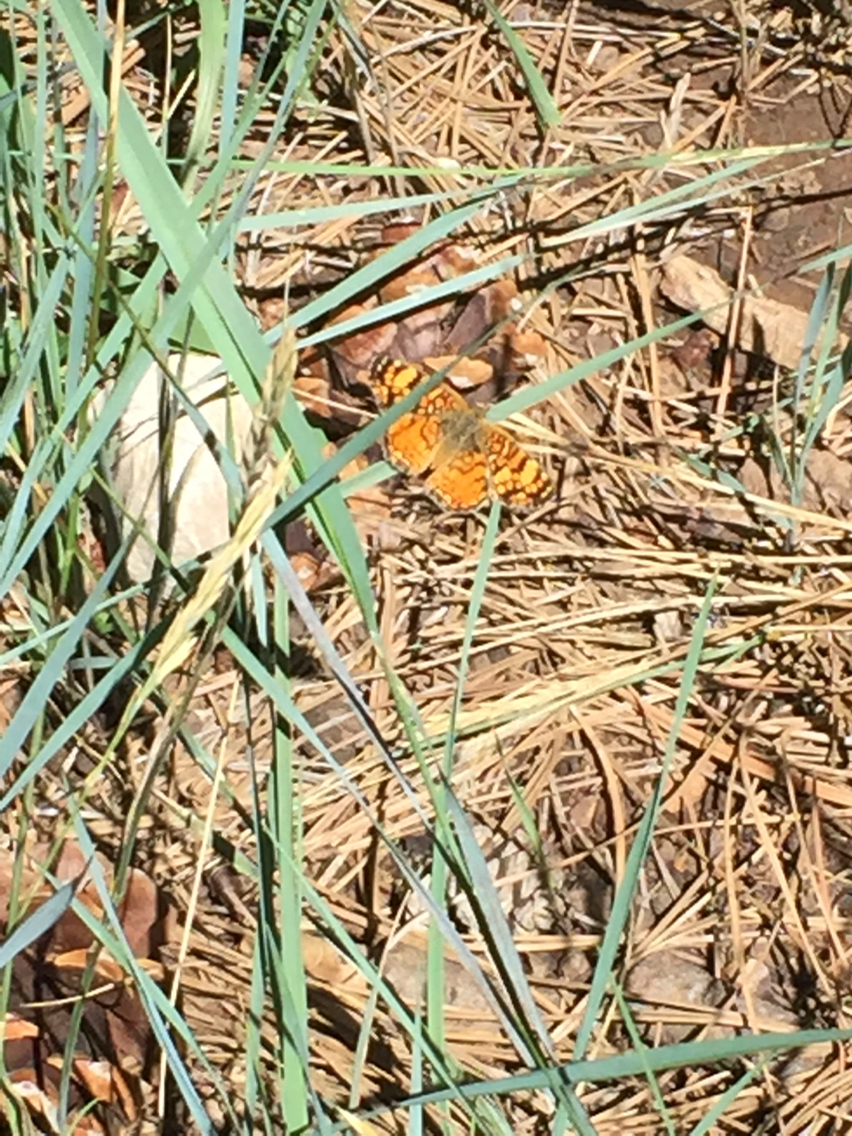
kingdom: Animalia
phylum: Arthropoda
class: Insecta
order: Lepidoptera
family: Nymphalidae
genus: Eresia
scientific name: Eresia aveyrona
